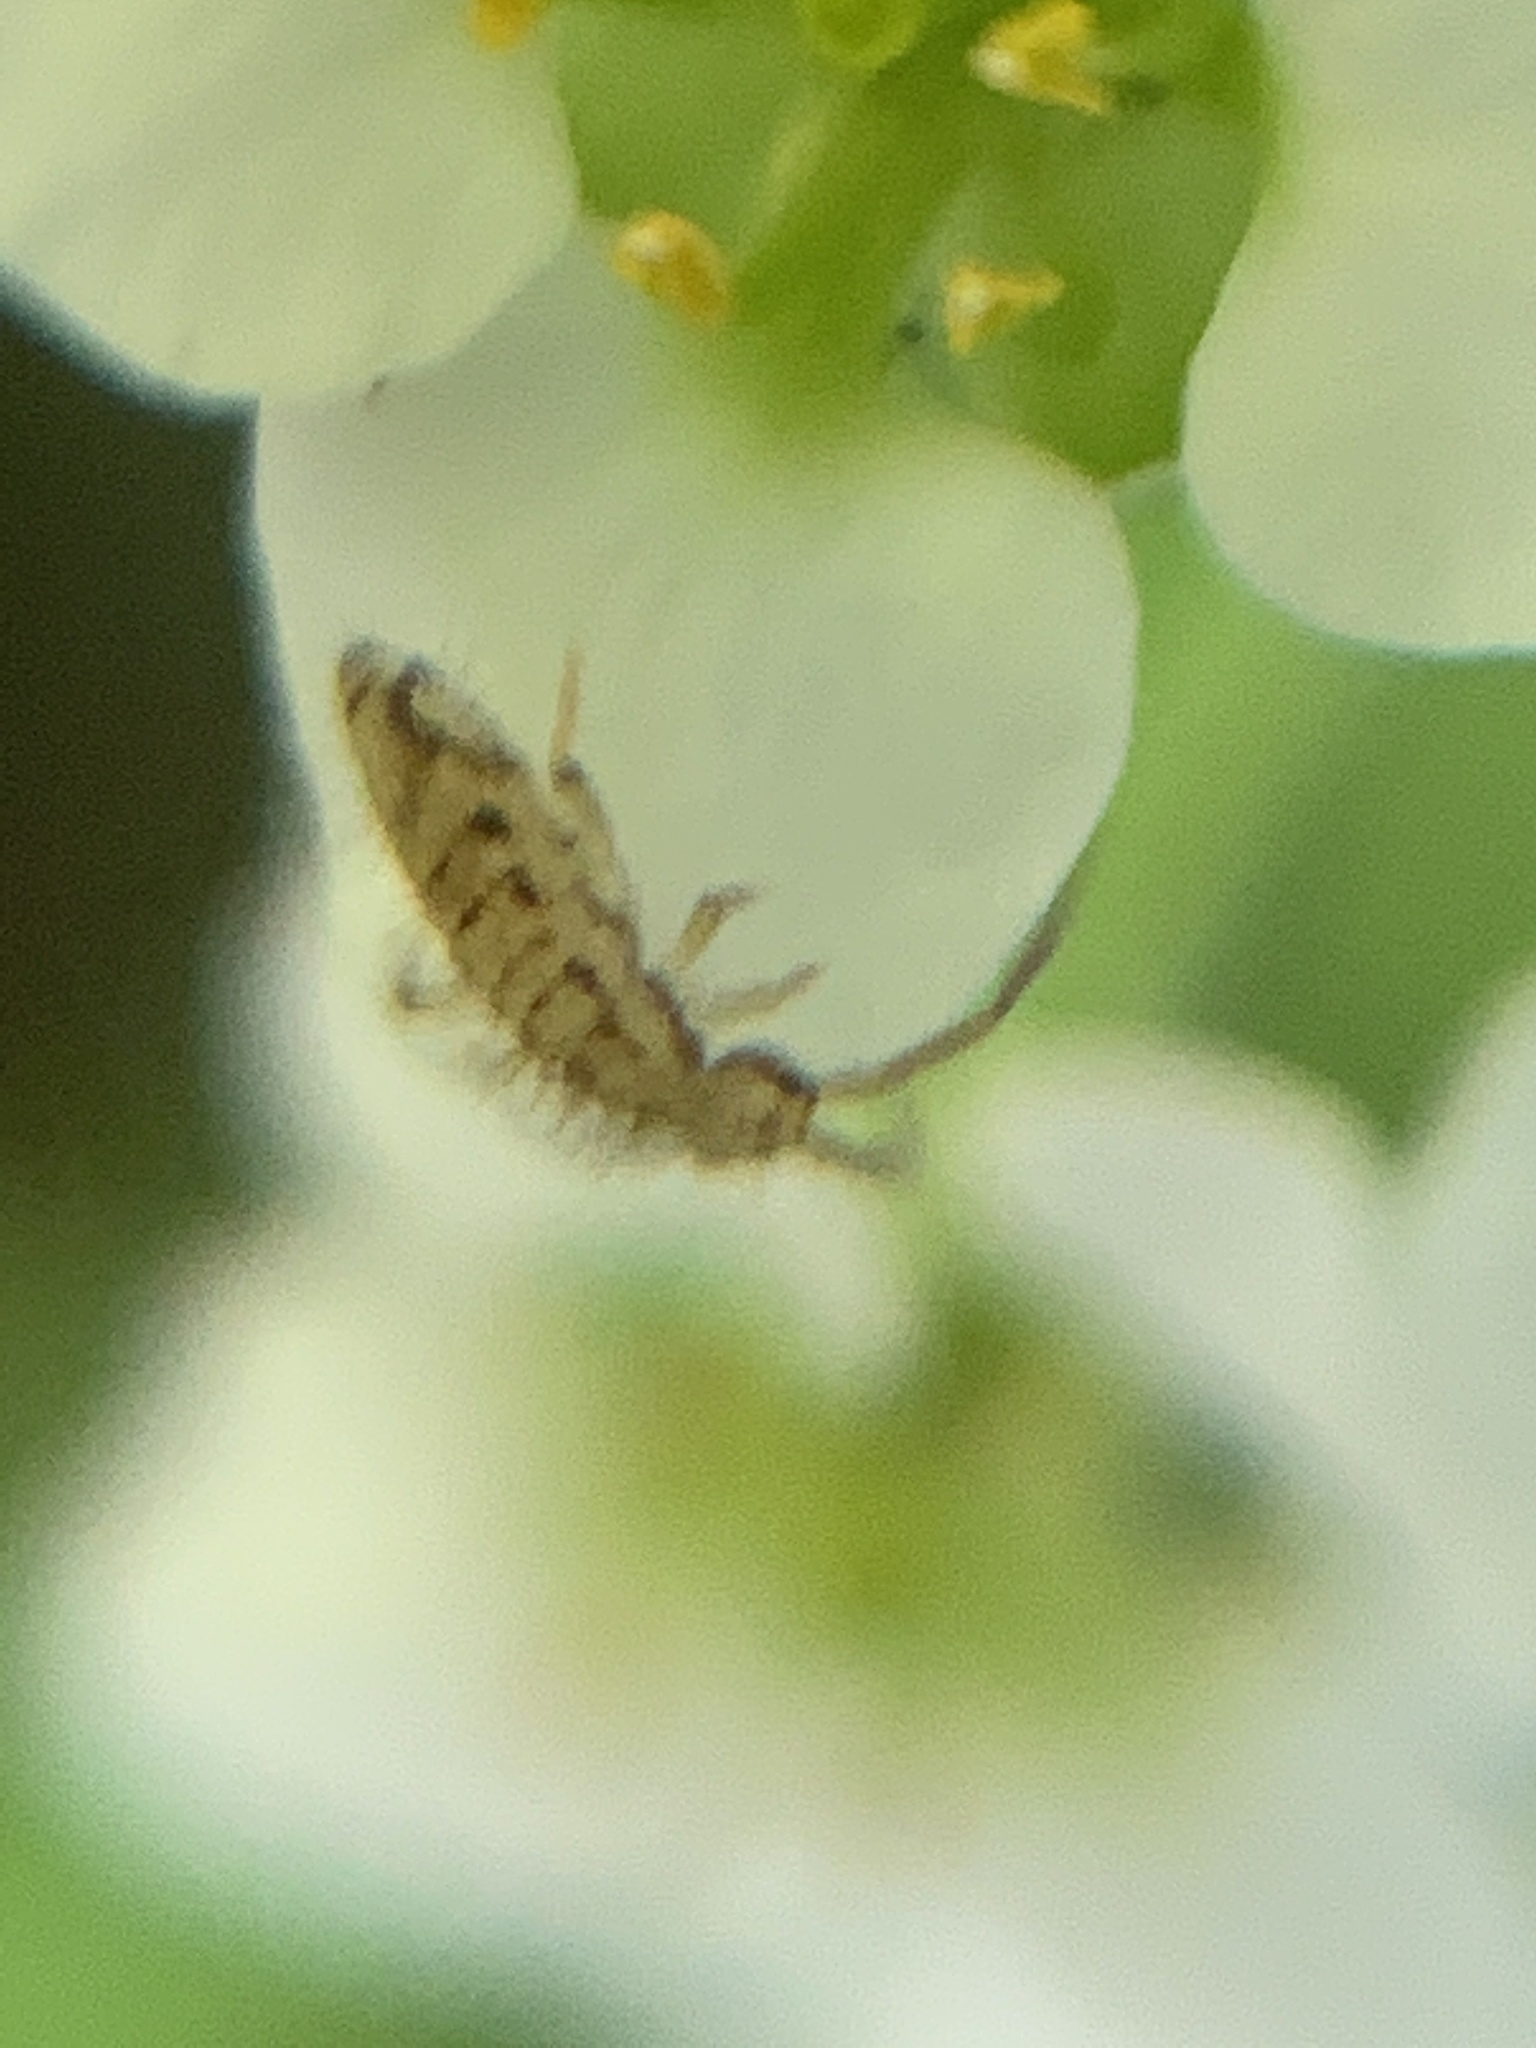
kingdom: Animalia
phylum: Arthropoda
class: Collembola
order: Entomobryomorpha
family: Entomobryidae
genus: Entomobrya
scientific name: Entomobrya intermedia
